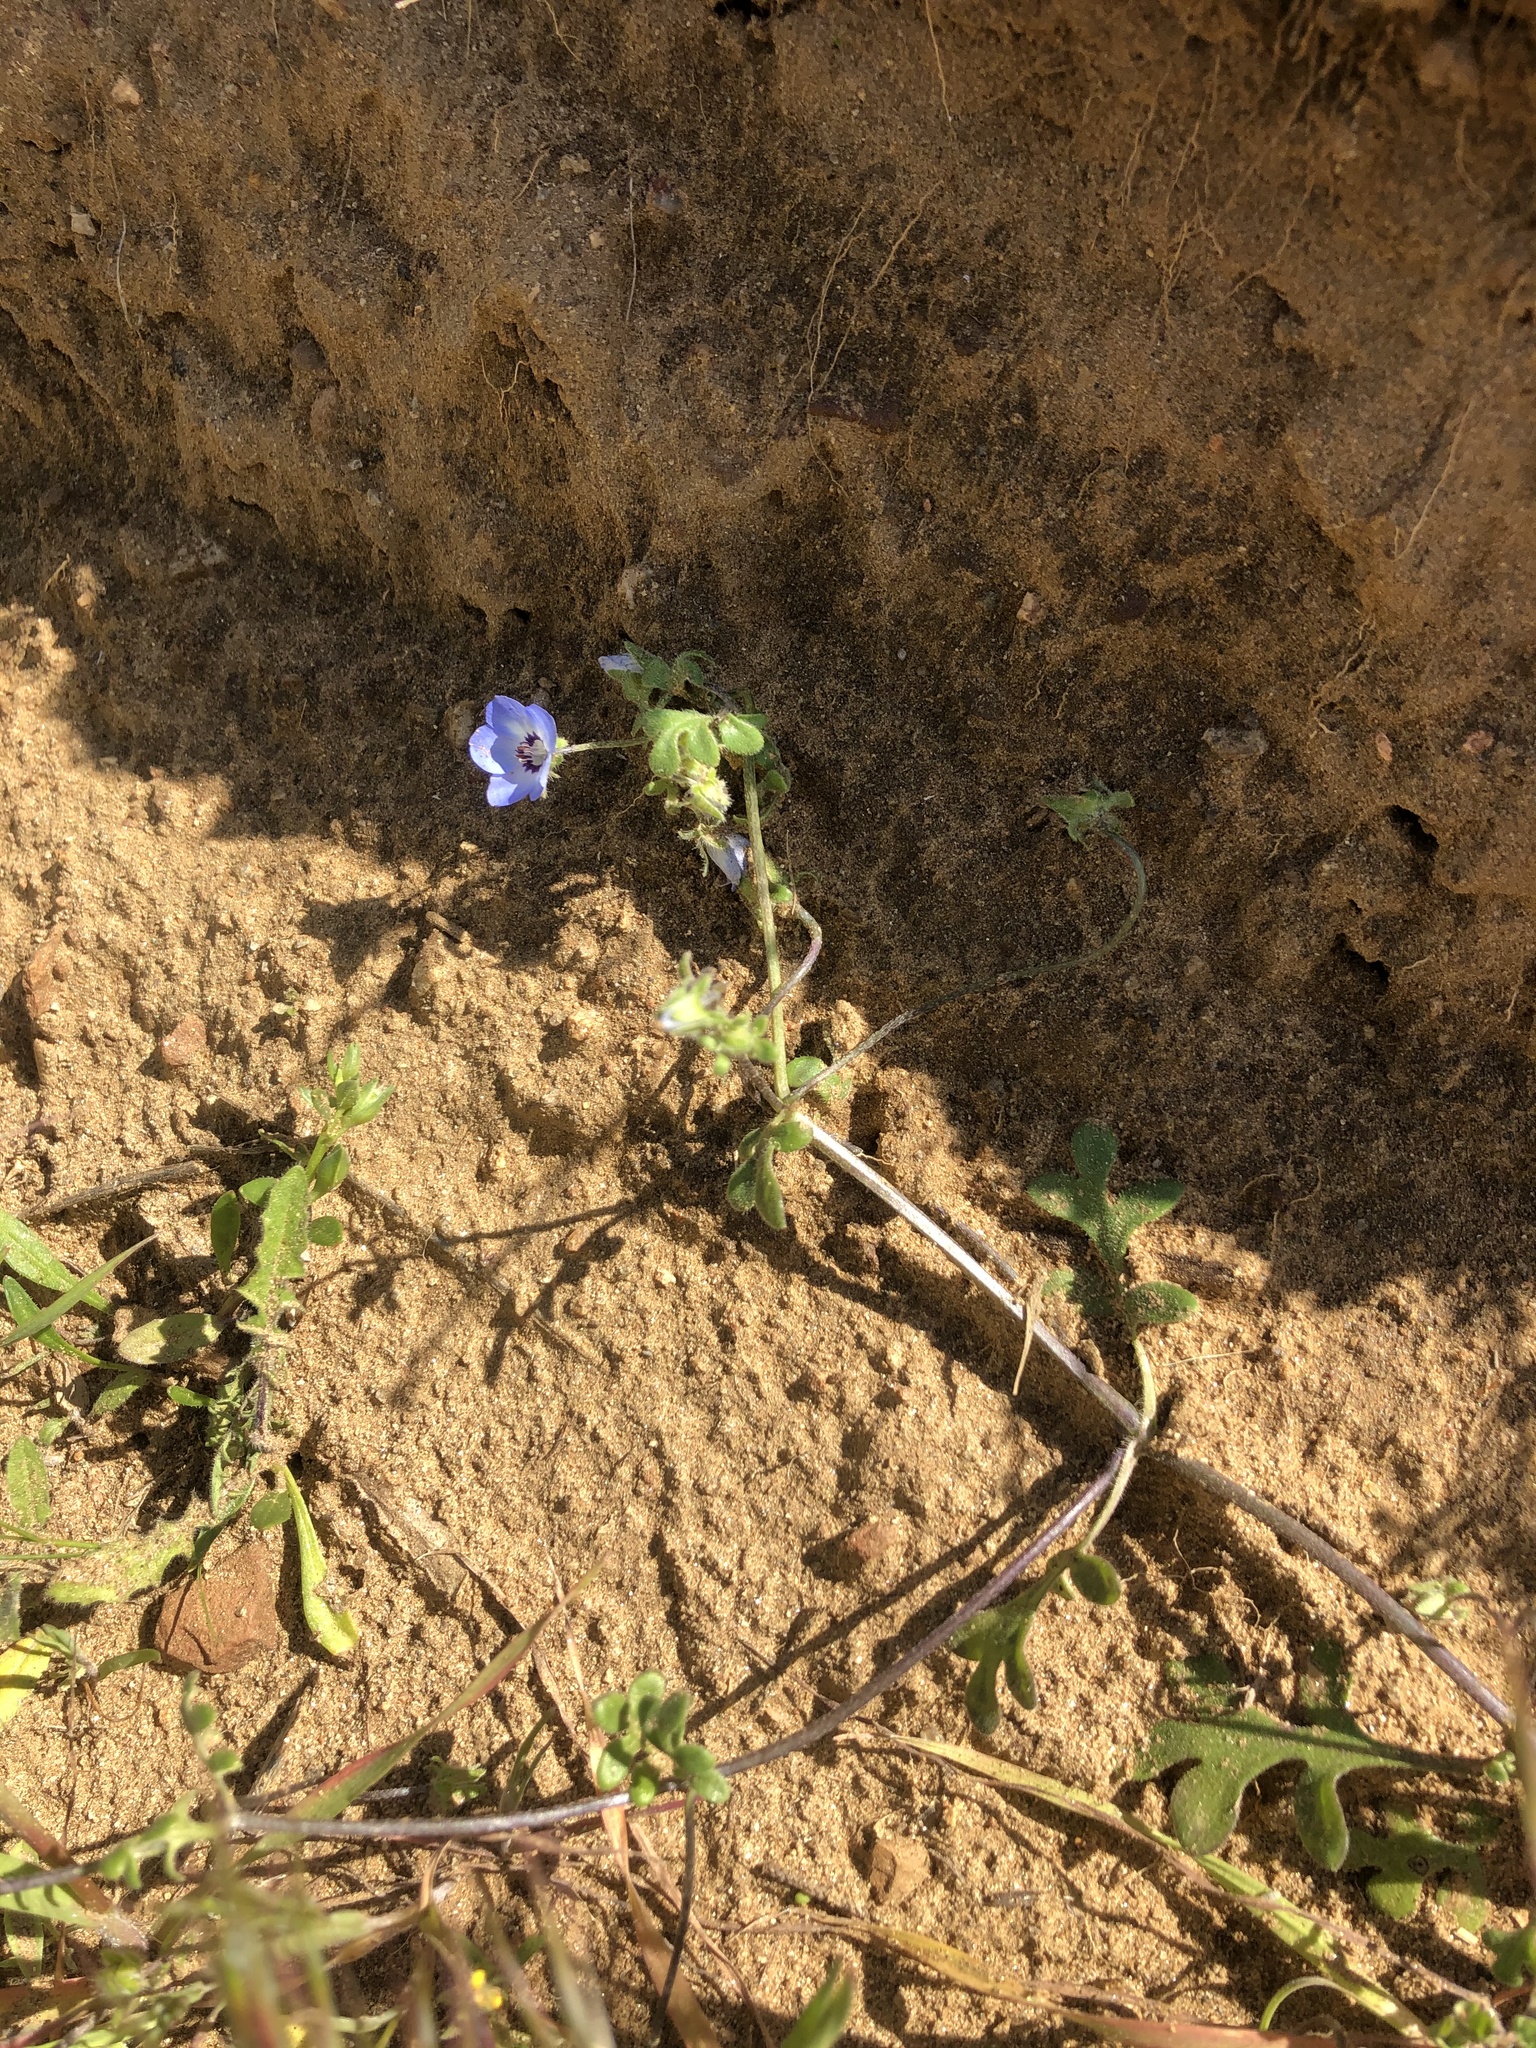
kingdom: Plantae
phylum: Tracheophyta
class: Magnoliopsida
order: Boraginales
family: Hydrophyllaceae
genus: Nemophila
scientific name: Nemophila menziesii
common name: Baby's-blue-eyes
